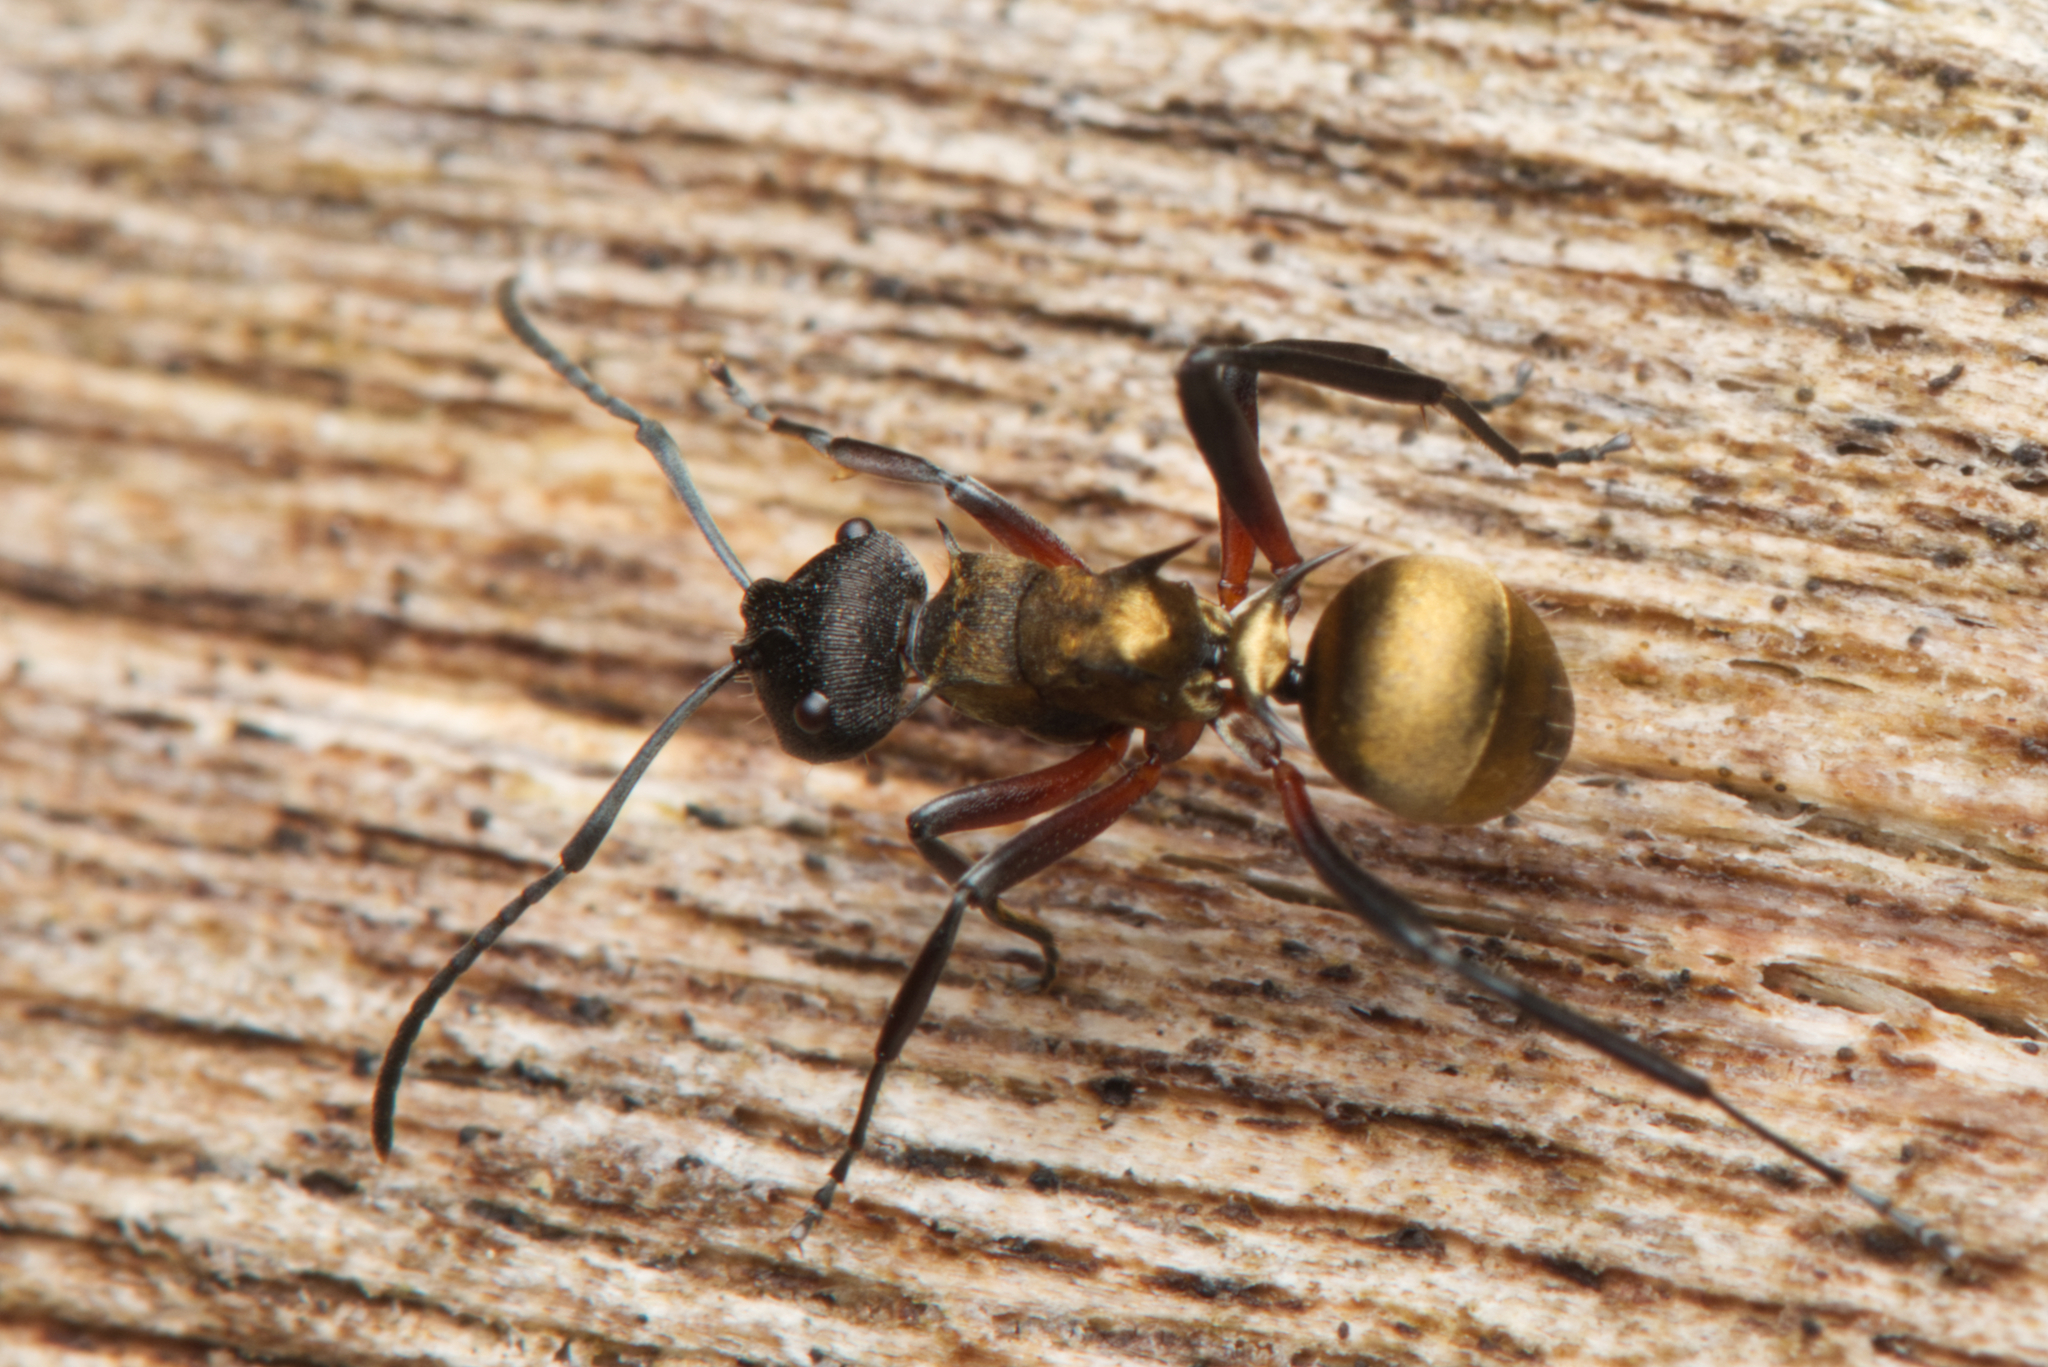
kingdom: Animalia
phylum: Arthropoda
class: Insecta
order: Hymenoptera
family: Formicidae
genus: Polyrhachis
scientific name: Polyrhachis rufifemur
